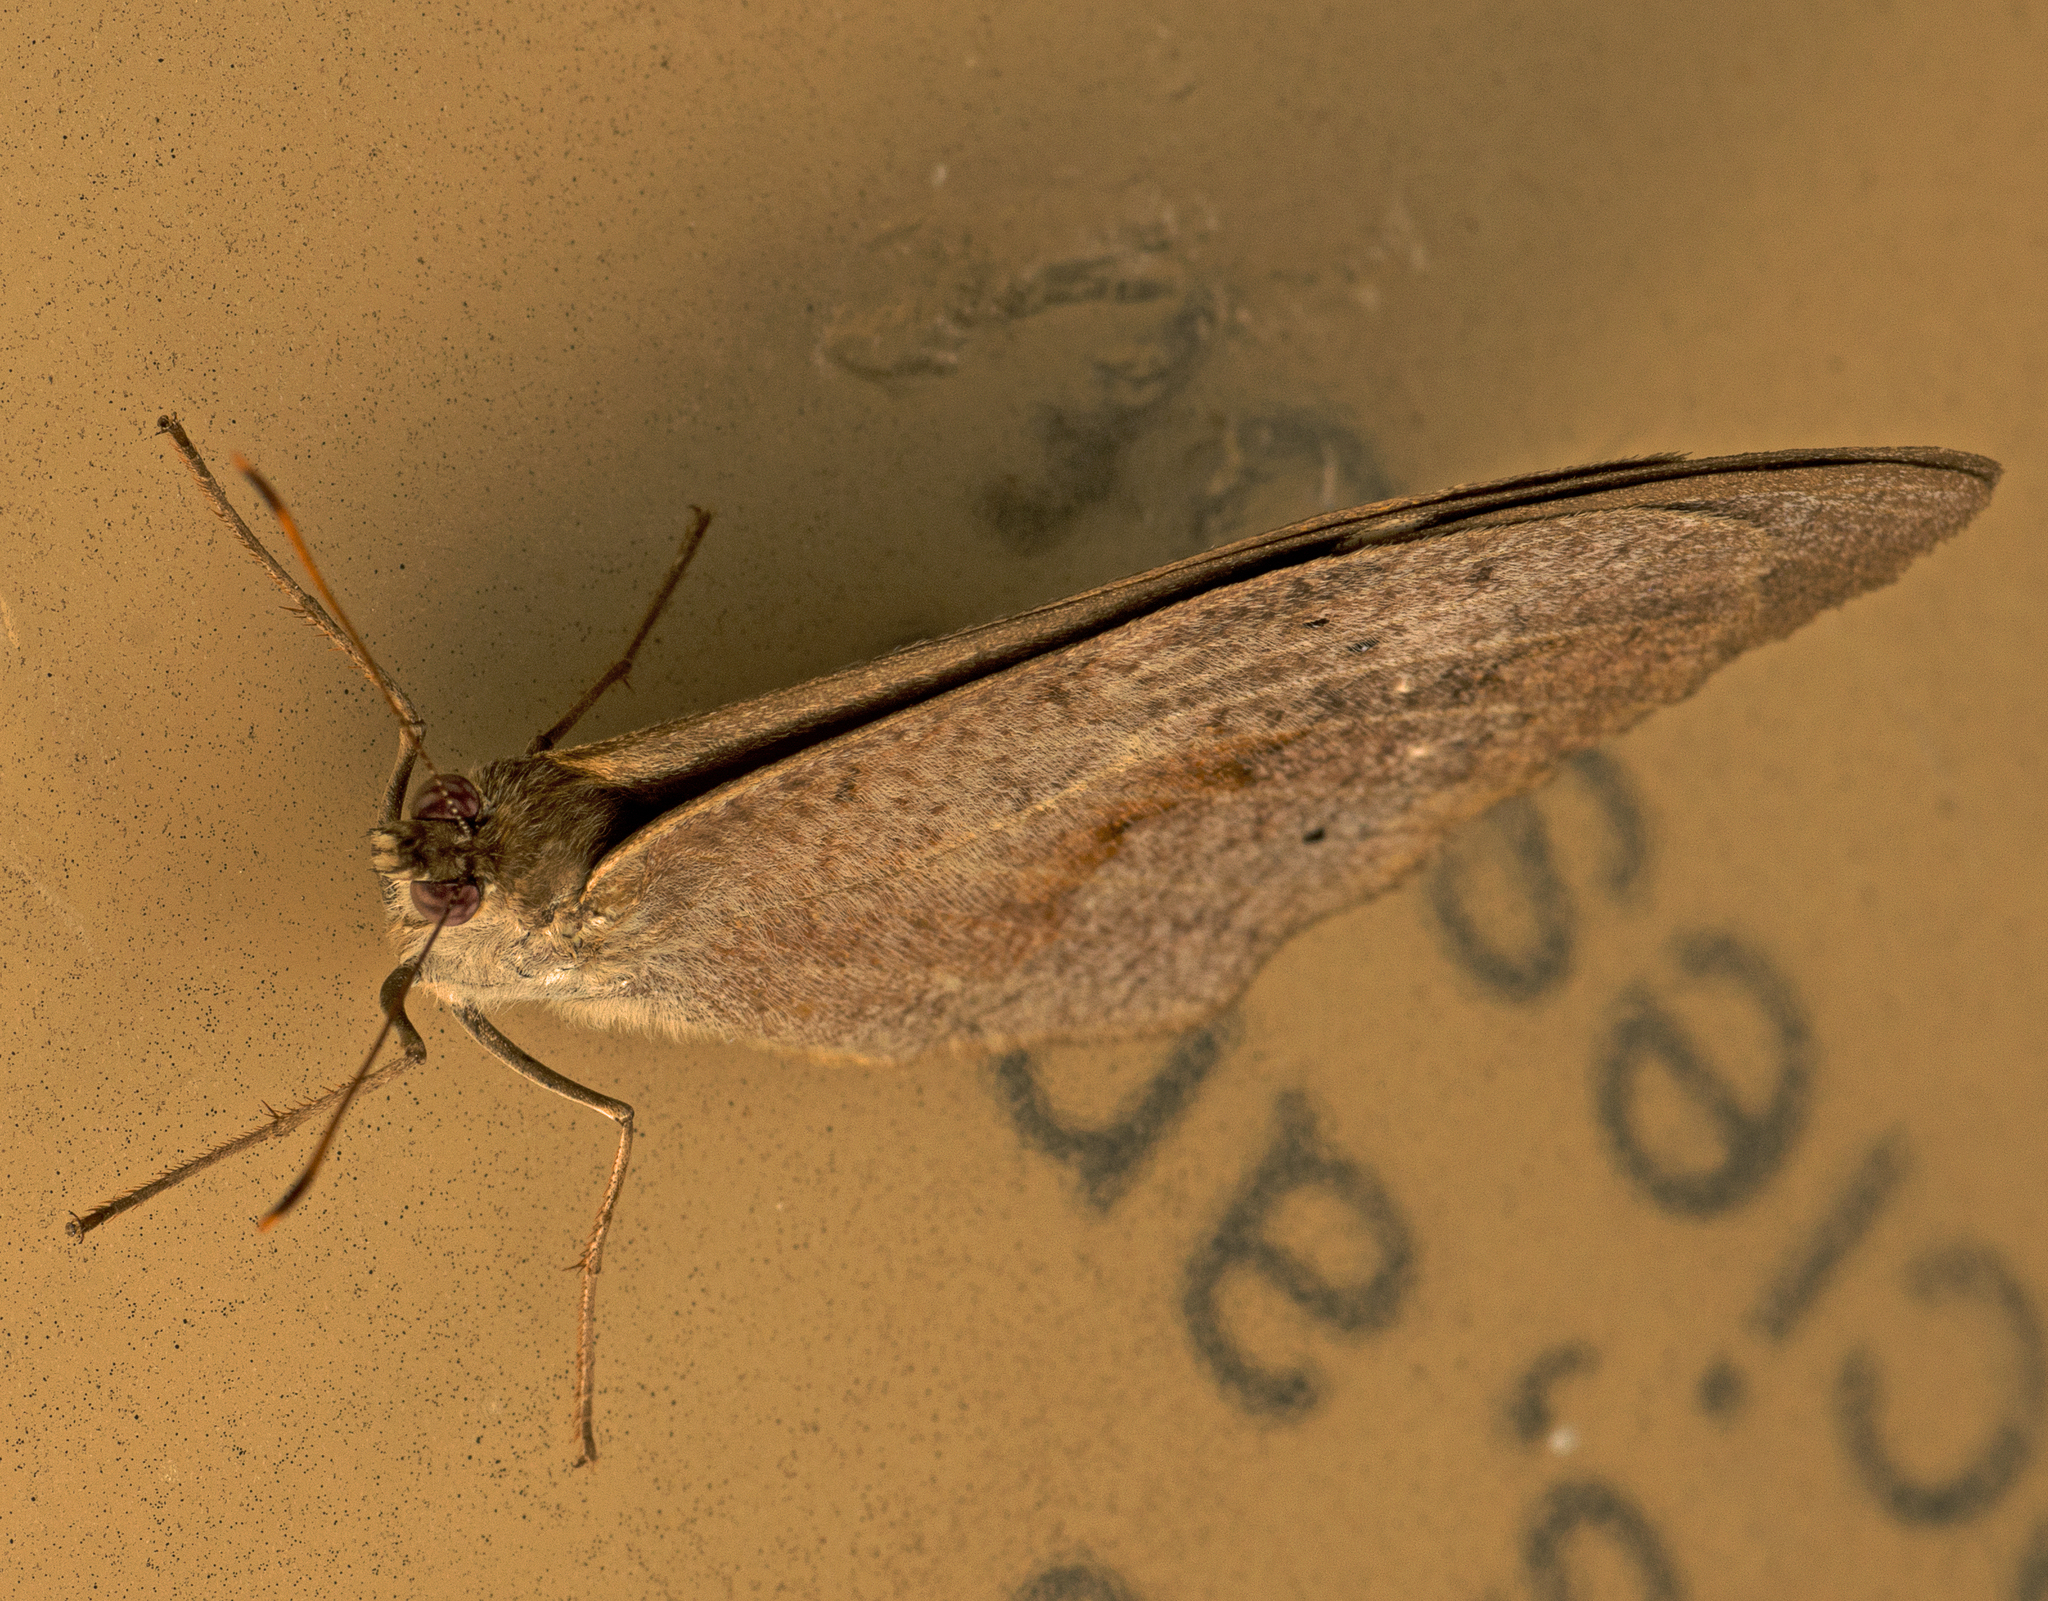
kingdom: Animalia
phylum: Arthropoda
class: Insecta
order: Lepidoptera
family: Nymphalidae
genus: Heteronympha
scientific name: Heteronympha merope
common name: Common brown
